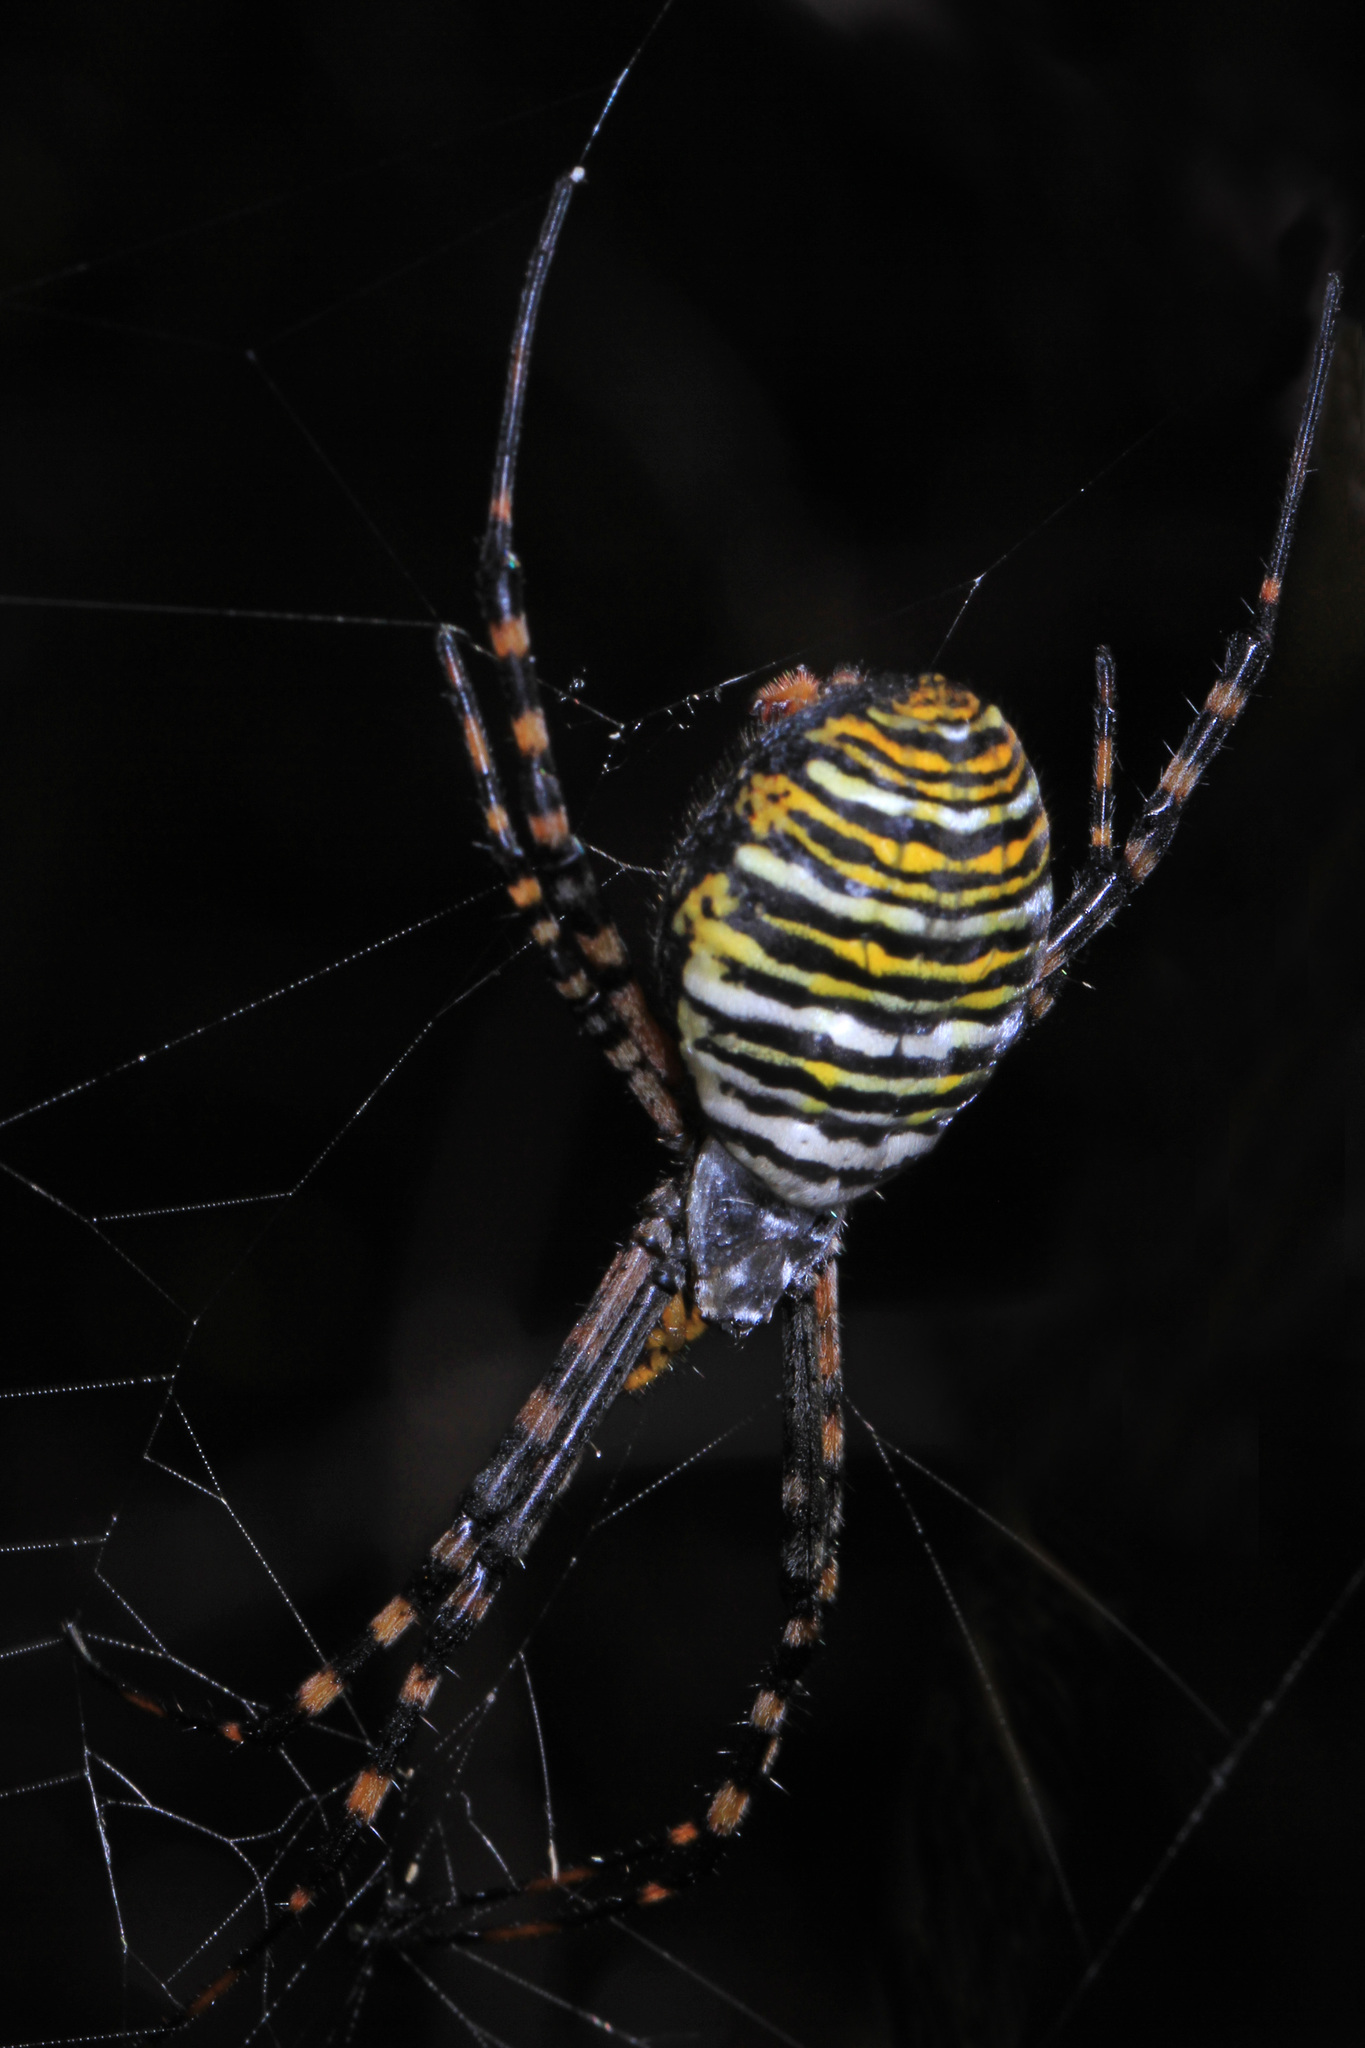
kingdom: Animalia
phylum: Arthropoda
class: Arachnida
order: Araneae
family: Araneidae
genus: Argiope
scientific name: Argiope trifasciata
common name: Banded garden spider
